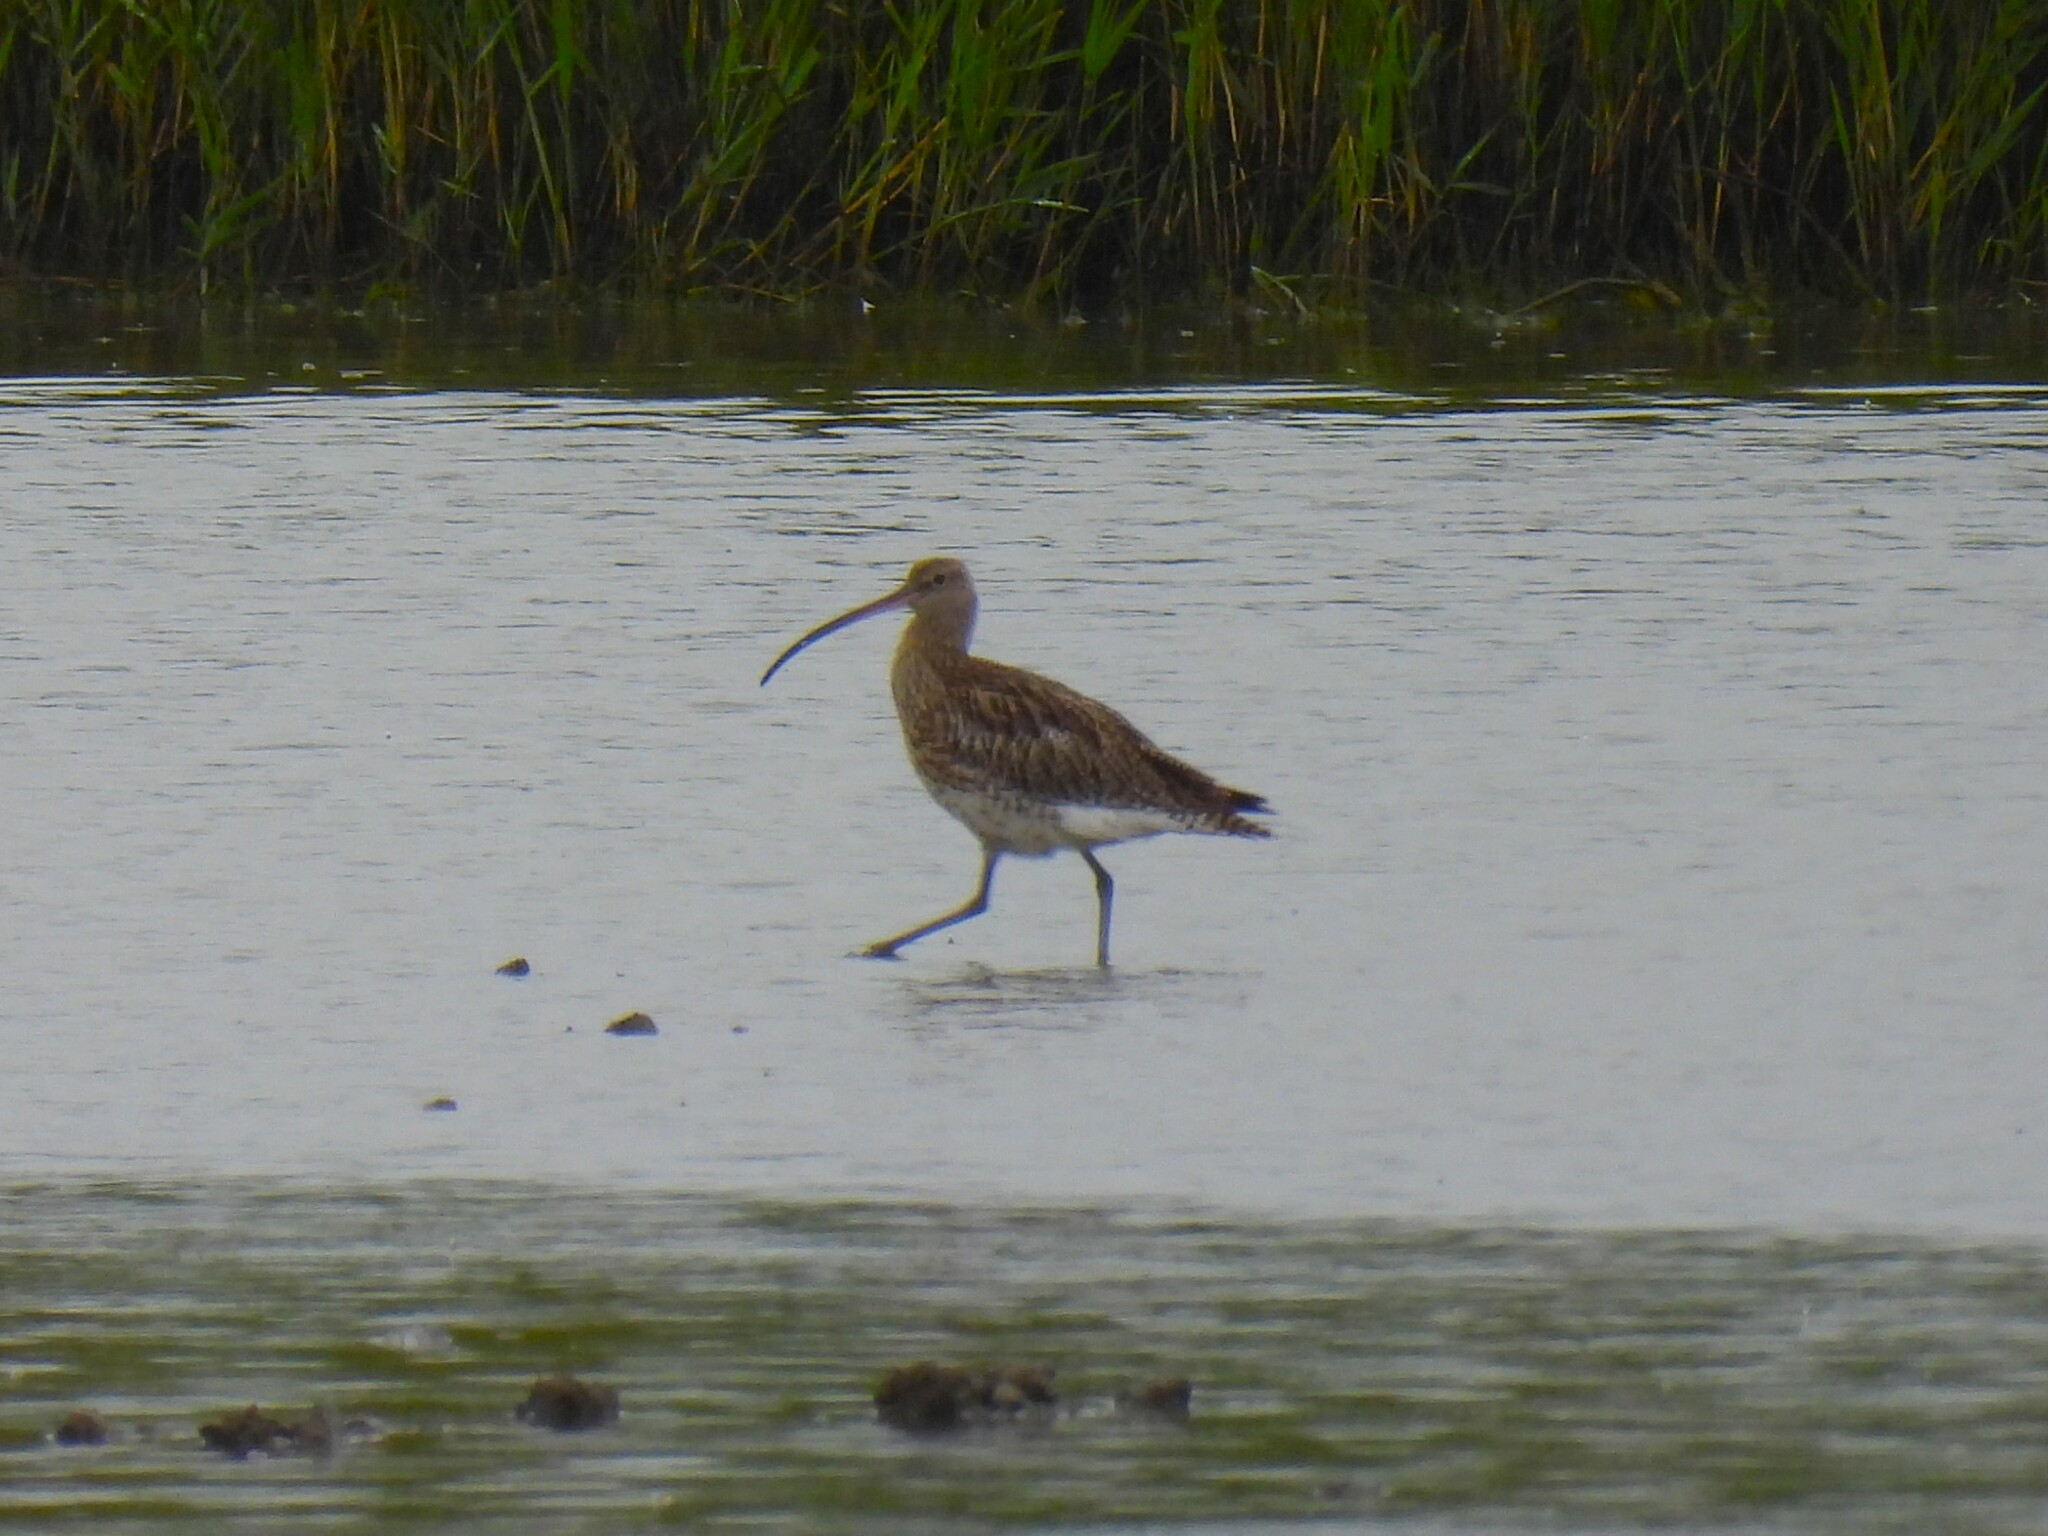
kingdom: Animalia
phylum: Chordata
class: Aves
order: Charadriiformes
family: Scolopacidae
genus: Numenius
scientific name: Numenius arquata
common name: Eurasian curlew
